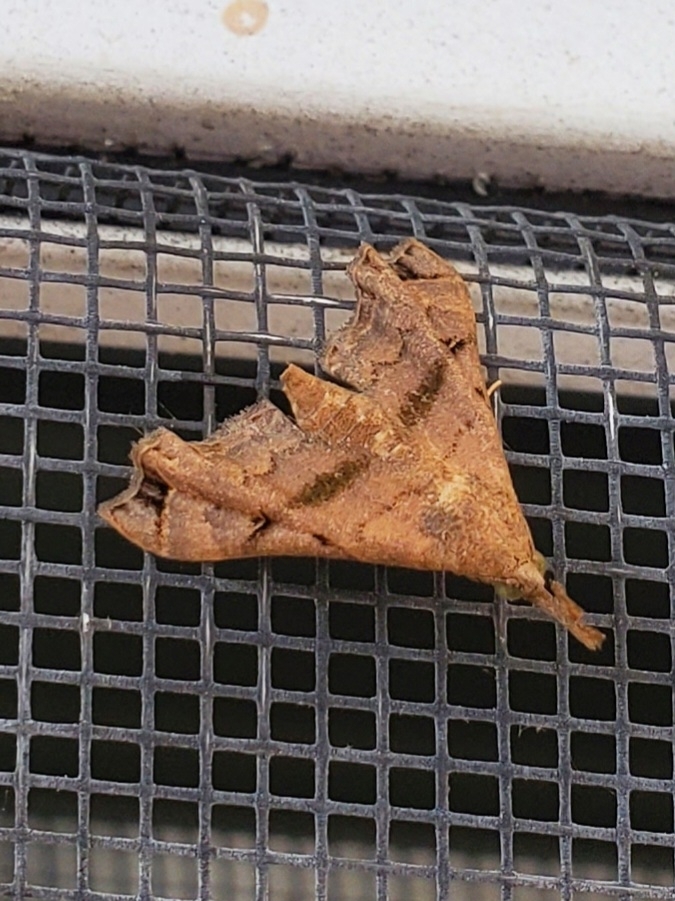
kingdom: Animalia
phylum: Arthropoda
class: Insecta
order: Lepidoptera
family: Erebidae
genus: Palthis
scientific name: Palthis asopialis
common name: Faint-spotted palthis moth
